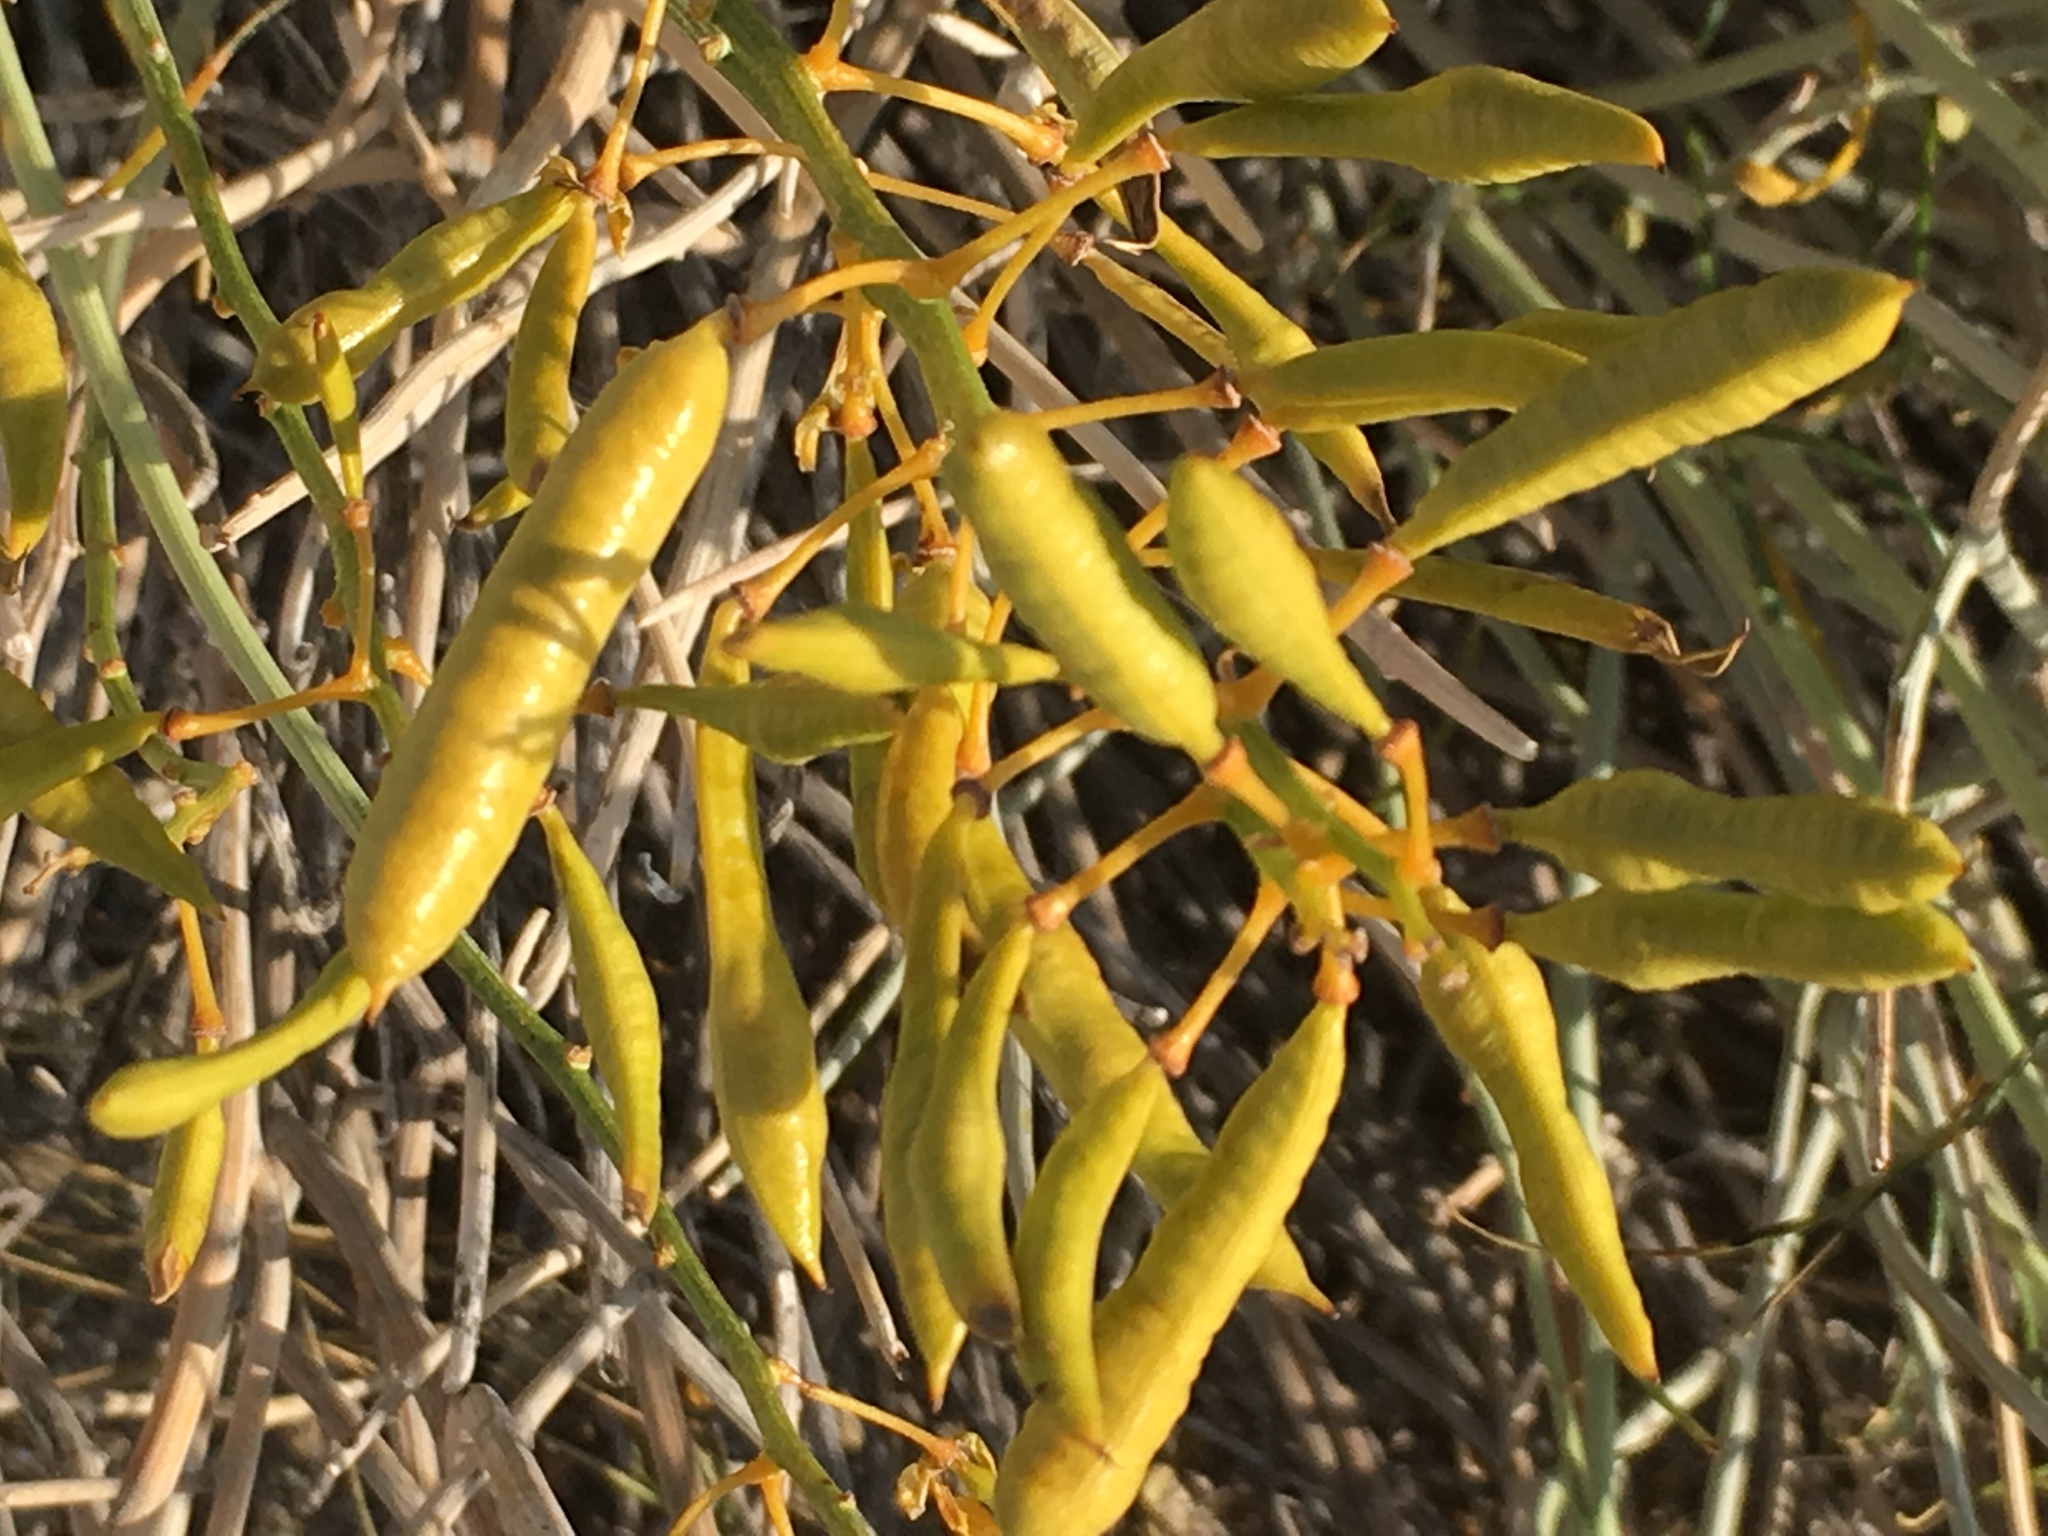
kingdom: Plantae
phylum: Tracheophyta
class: Magnoliopsida
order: Fabales
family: Fabaceae
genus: Senna
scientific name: Senna armata
